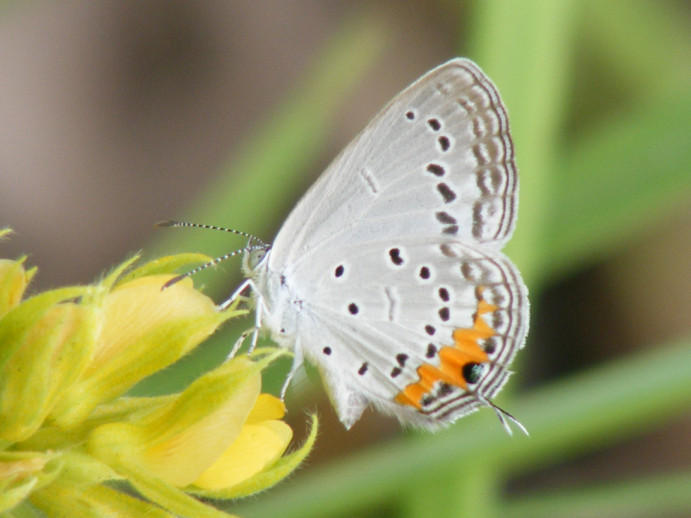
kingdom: Animalia
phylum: Arthropoda
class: Insecta
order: Lepidoptera
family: Lycaenidae
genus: Cupidopsis
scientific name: Cupidopsis jobates
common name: Tailed meadow blue
